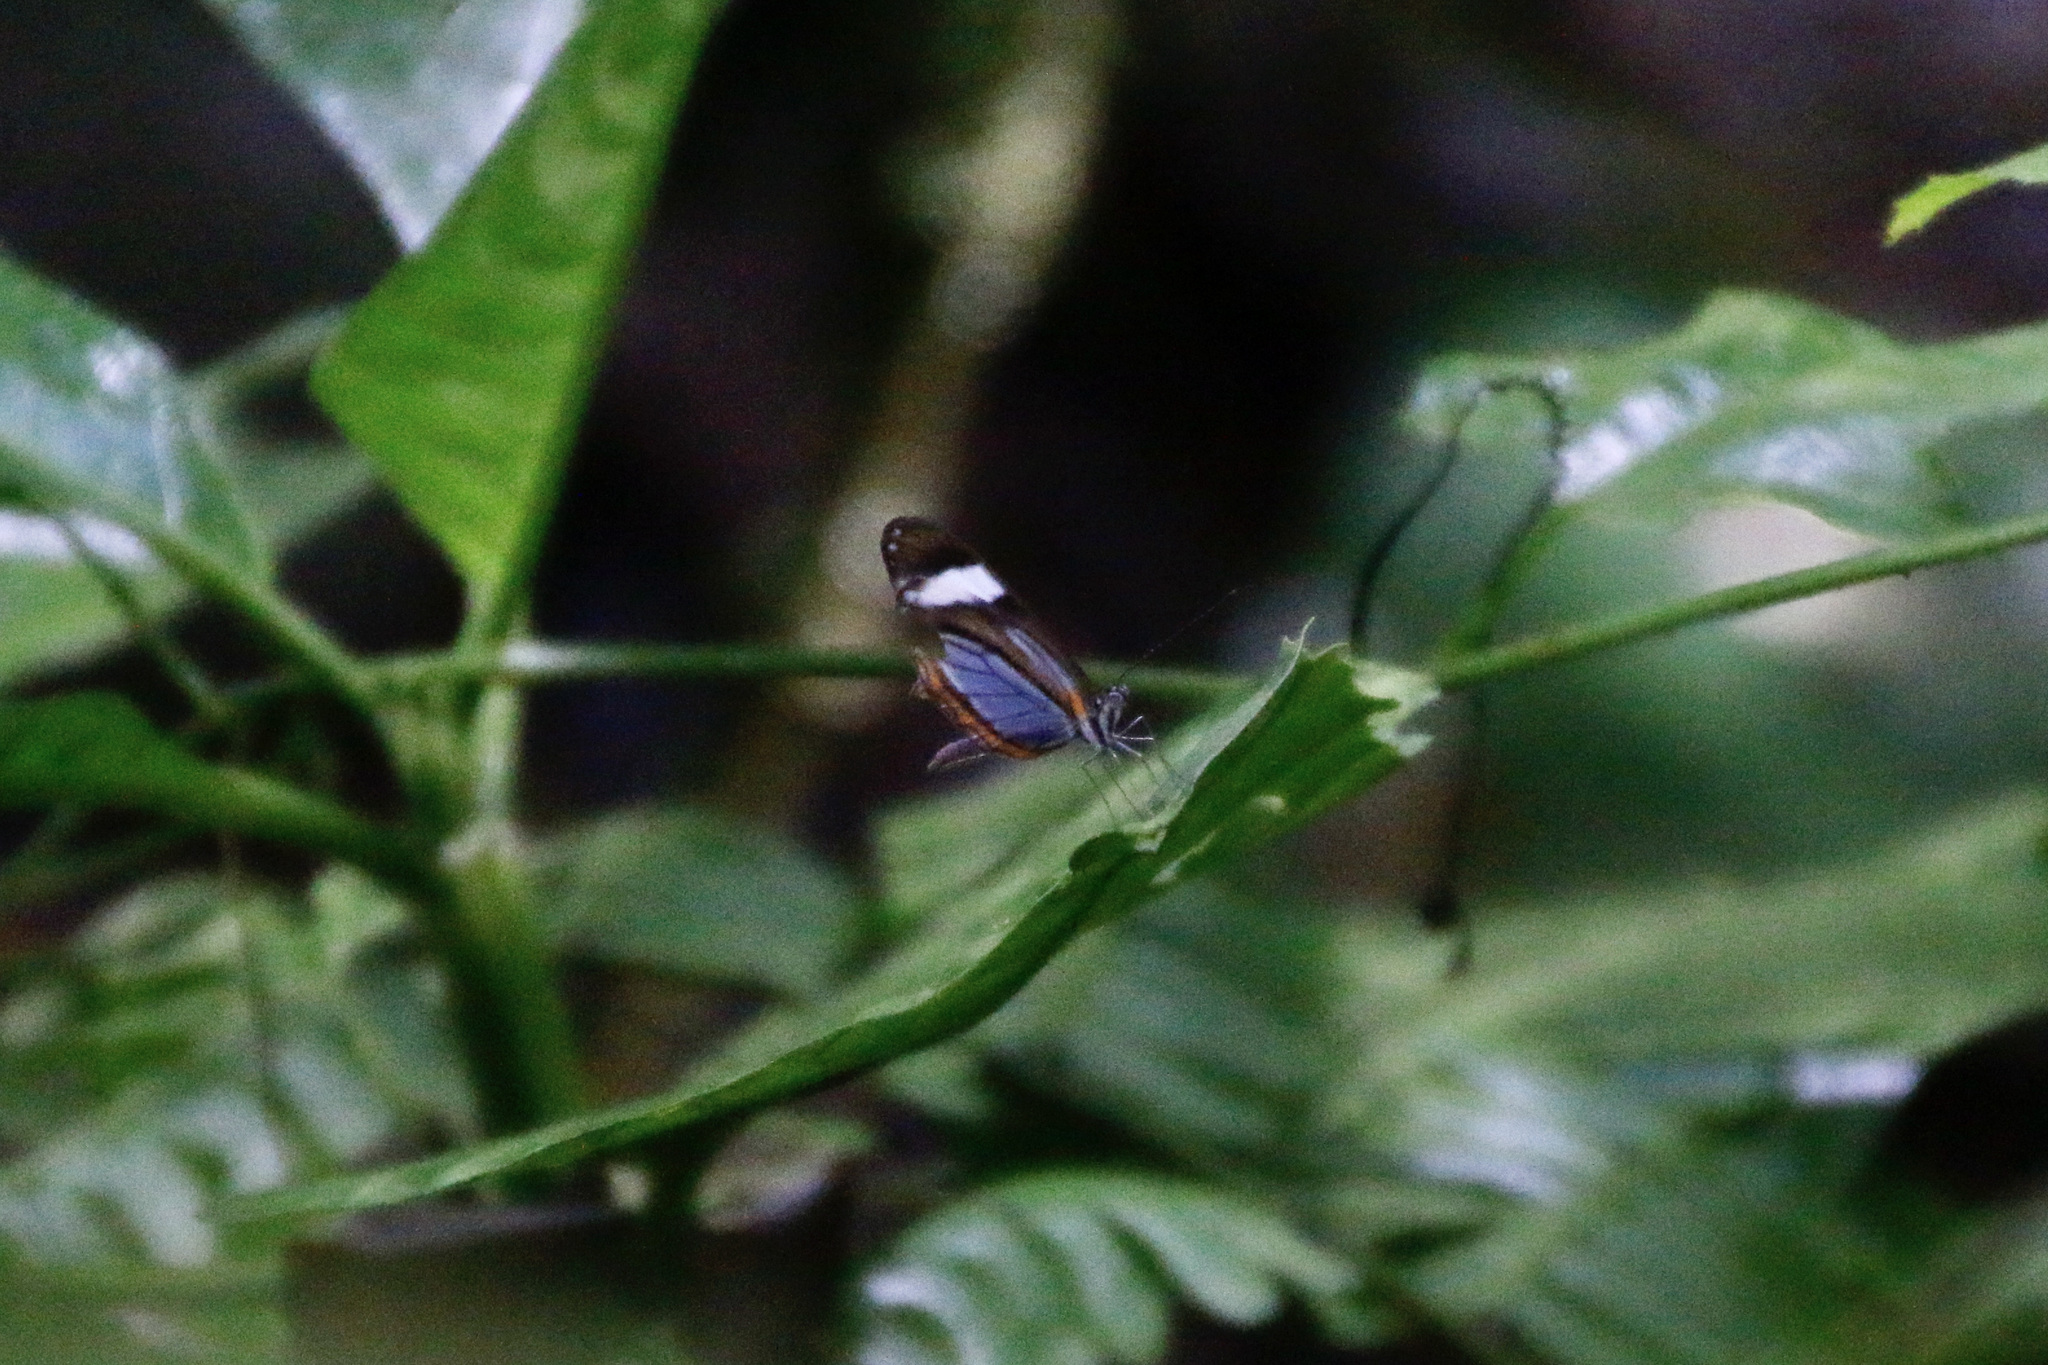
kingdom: Animalia
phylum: Arthropoda
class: Insecta
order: Lepidoptera
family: Pieridae
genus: Dismorphia
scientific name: Dismorphia theucharila
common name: Clearwing mimic-white
